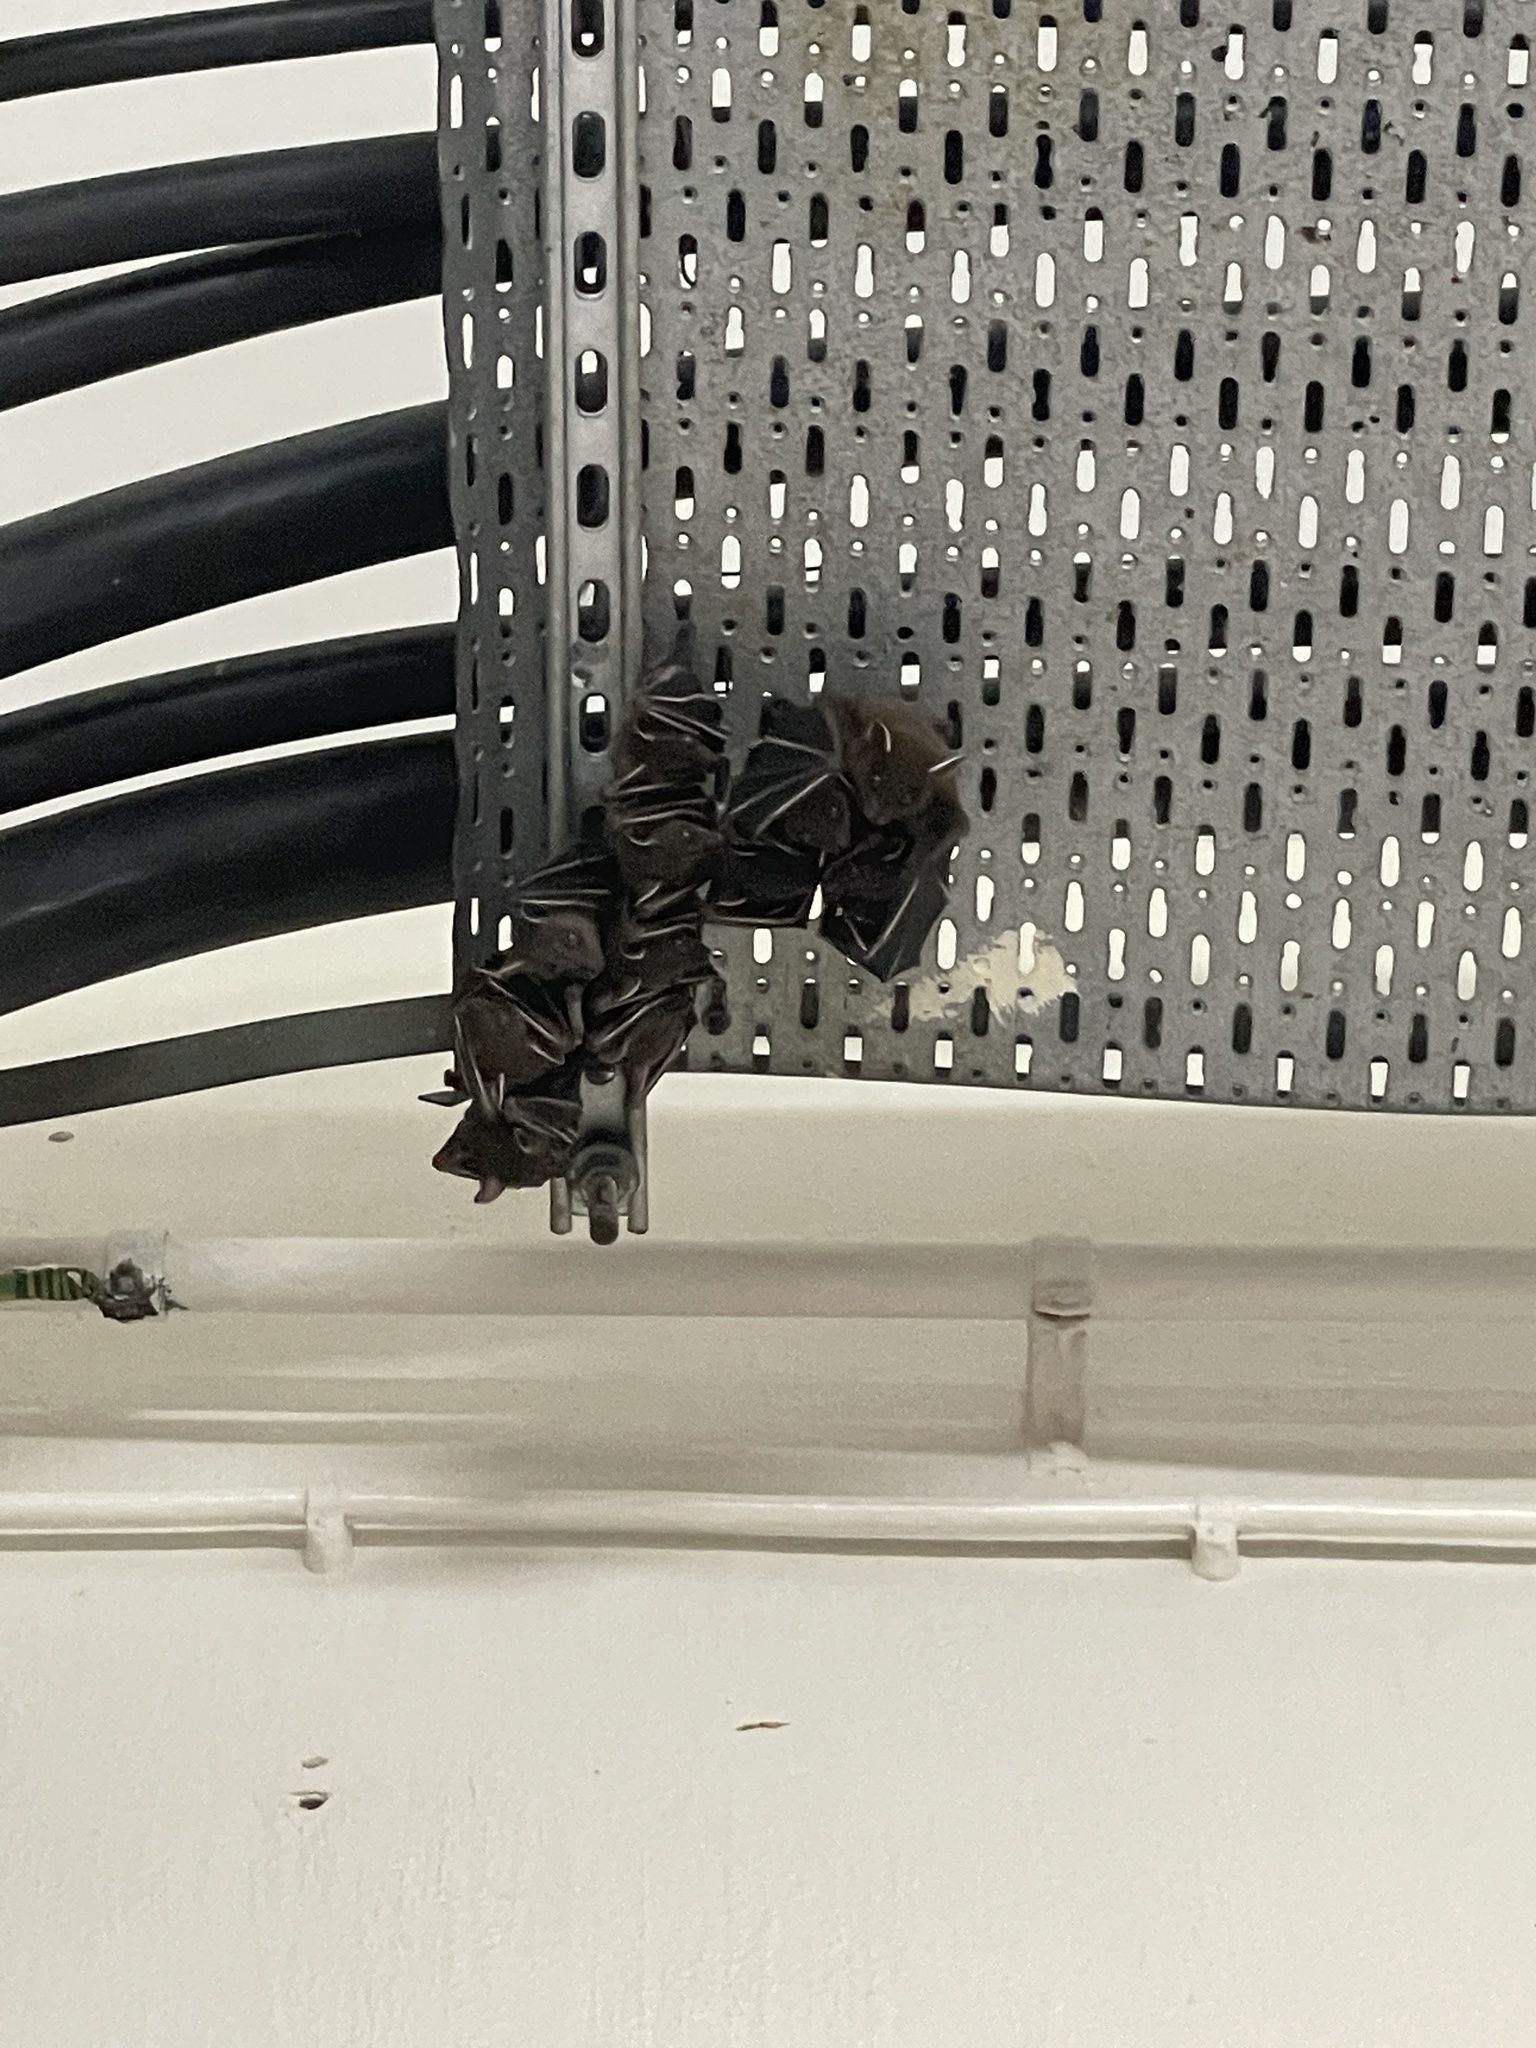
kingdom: Animalia
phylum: Chordata
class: Mammalia
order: Chiroptera
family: Pteropodidae
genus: Cynopterus
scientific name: Cynopterus sphinx
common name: Greater short-nosed fruit bat
